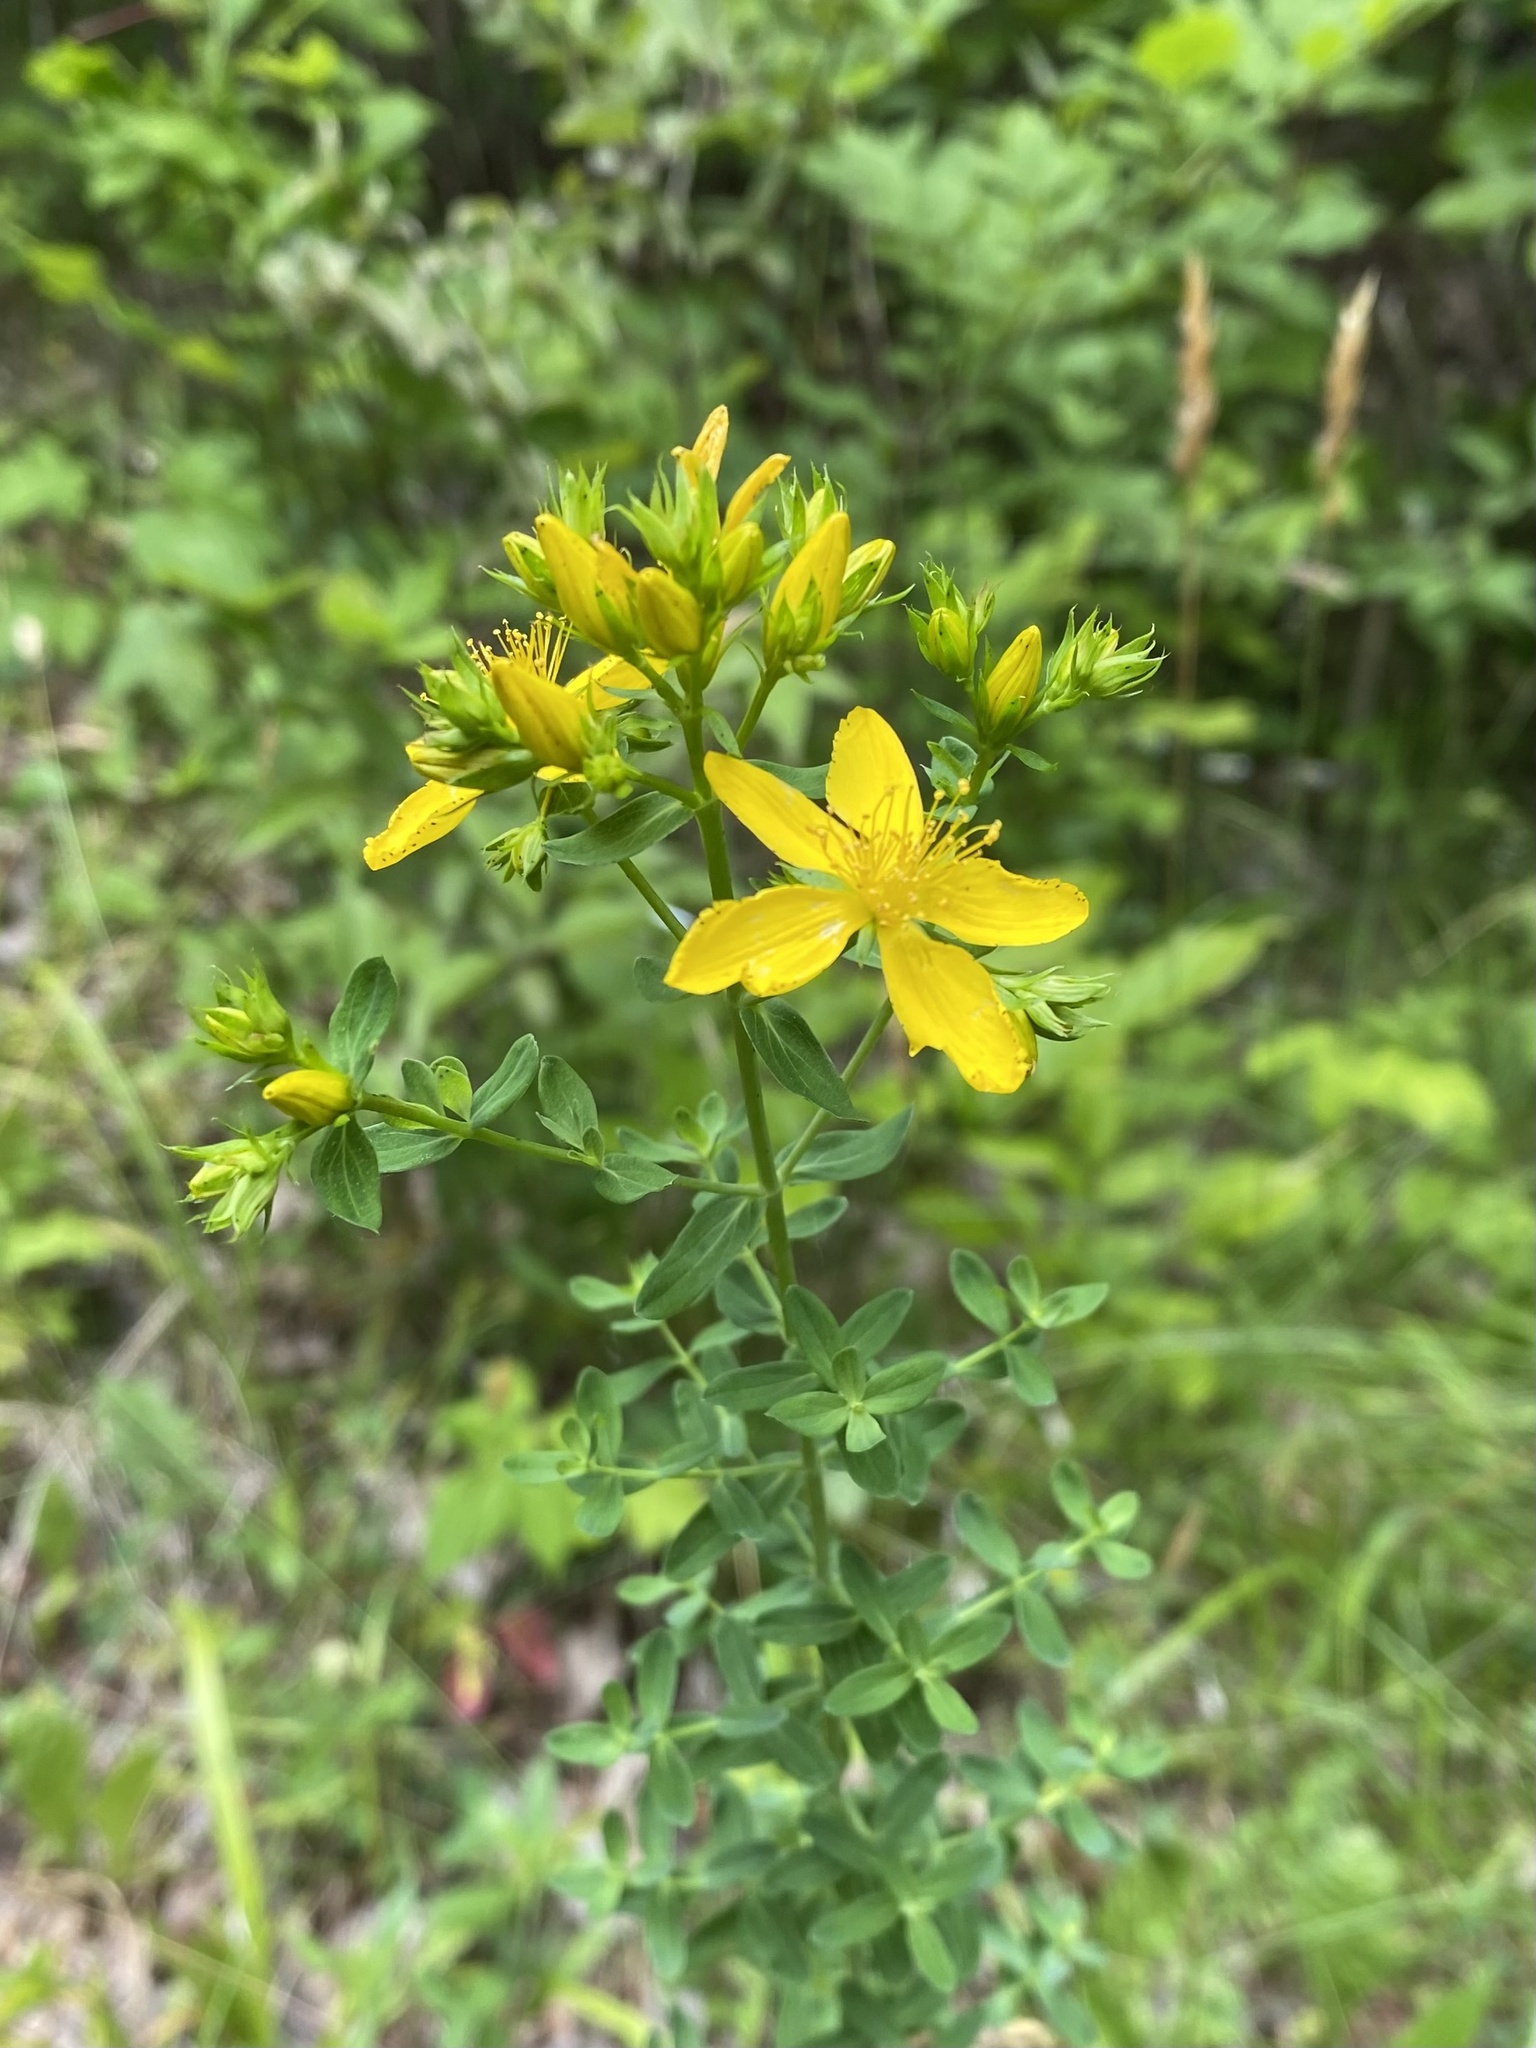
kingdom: Plantae
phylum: Tracheophyta
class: Magnoliopsida
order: Malpighiales
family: Hypericaceae
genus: Hypericum
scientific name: Hypericum perforatum
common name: Common st. johnswort
